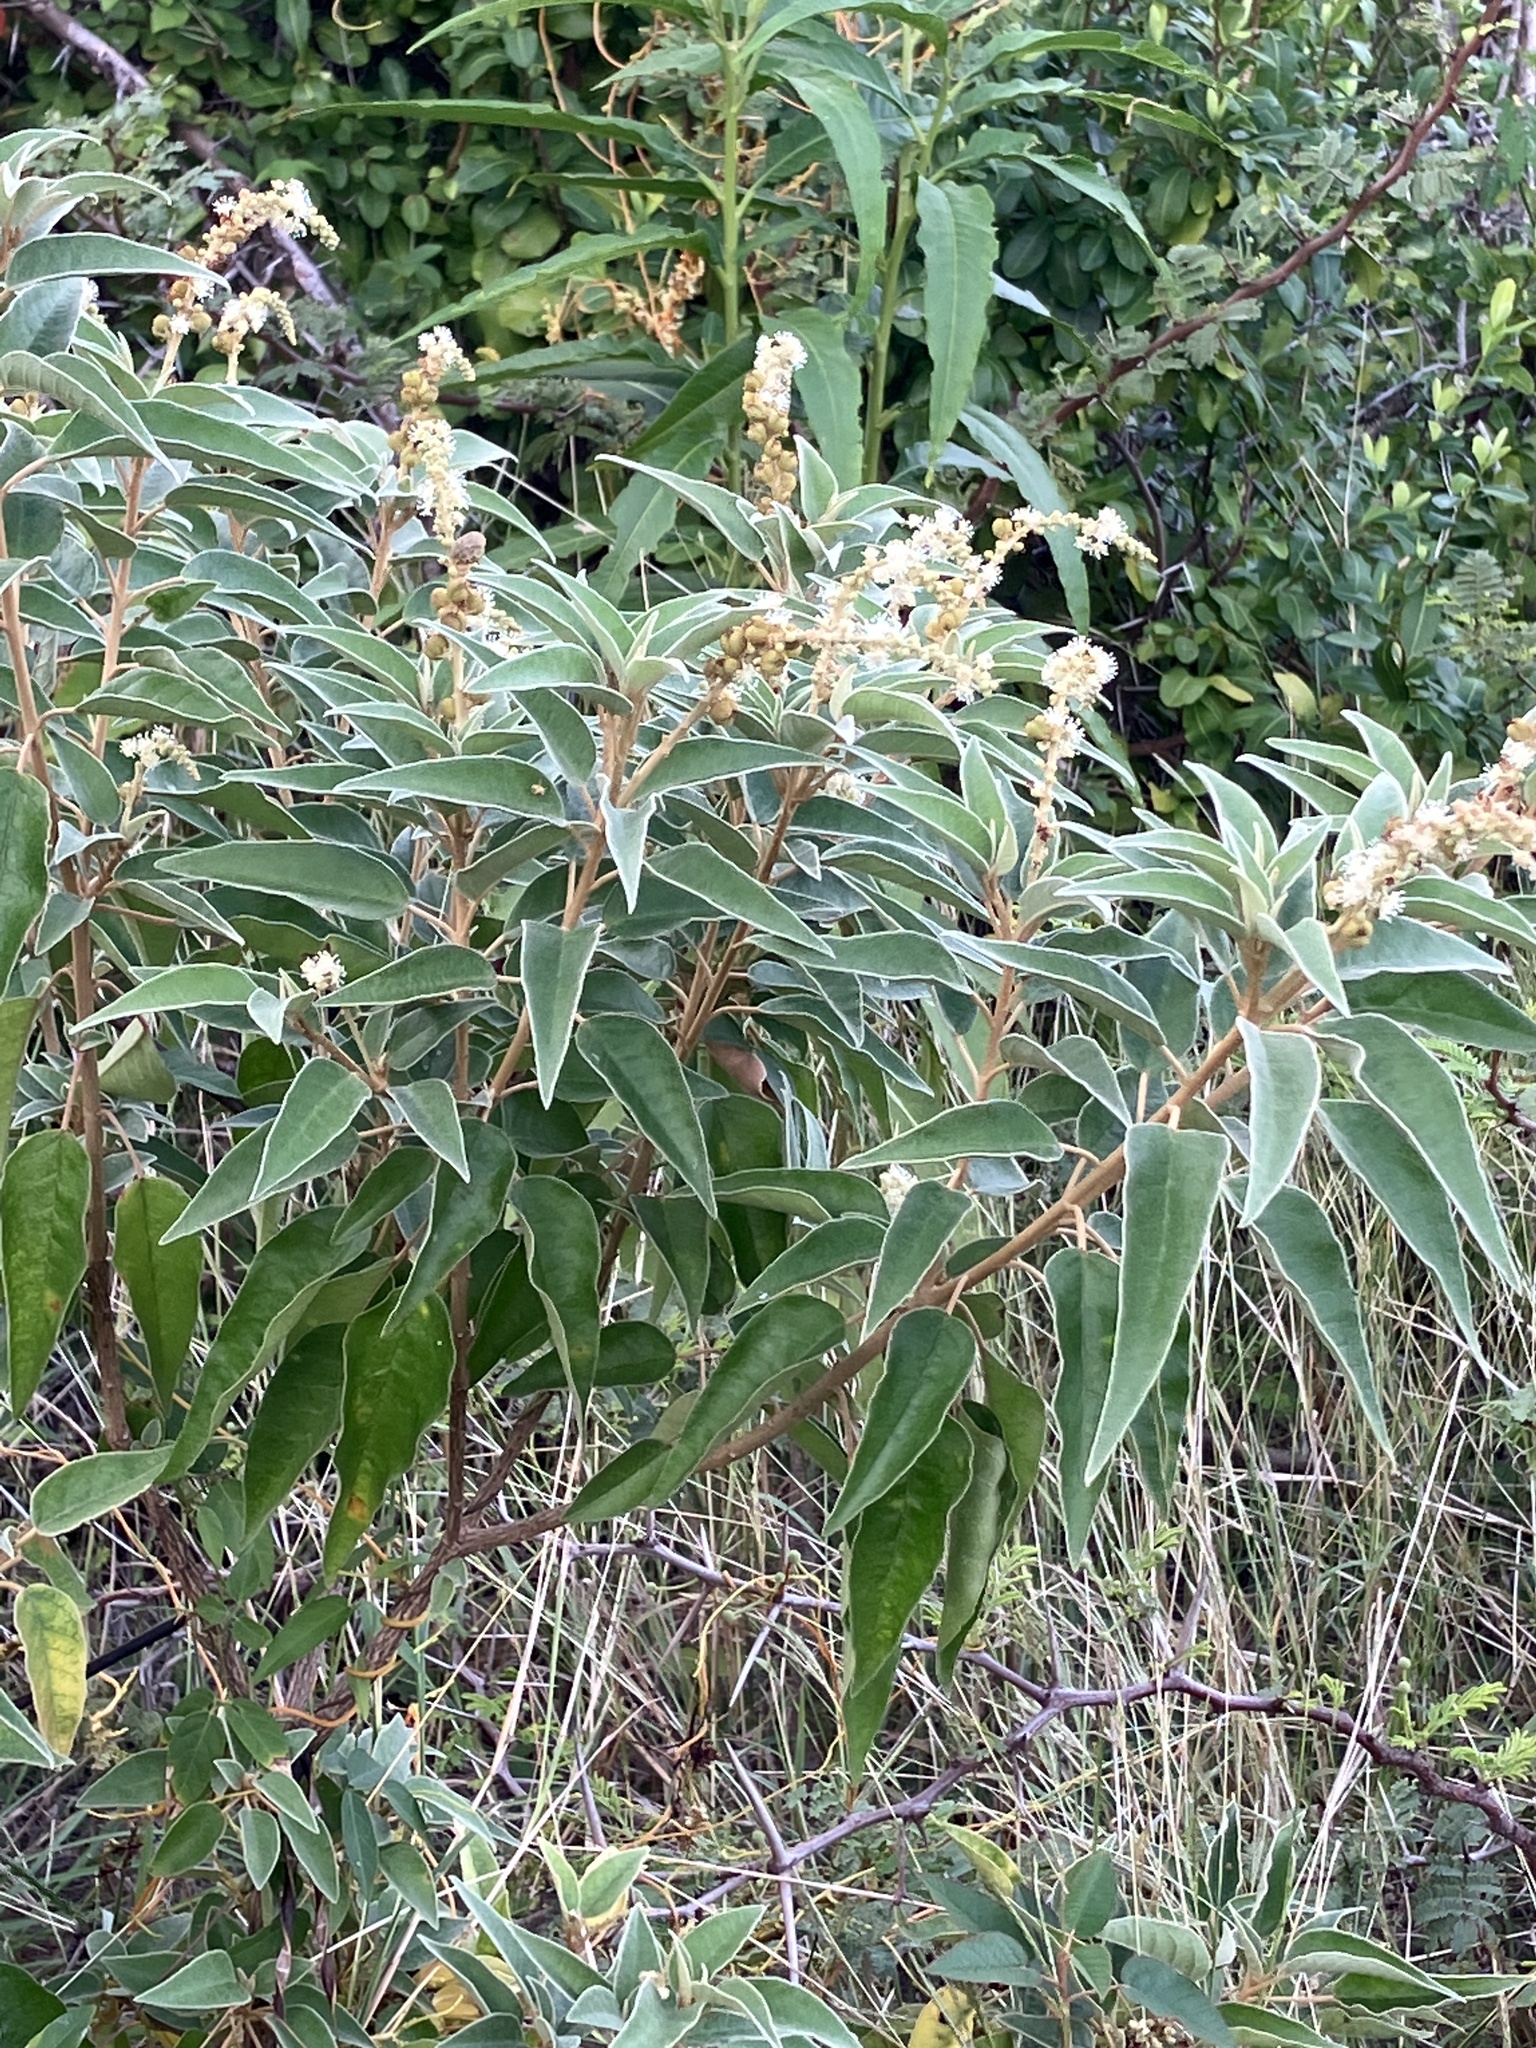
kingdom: Plantae
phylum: Tracheophyta
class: Magnoliopsida
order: Malpighiales
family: Euphorbiaceae
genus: Croton
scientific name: Croton flavens
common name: Yellow balsam
